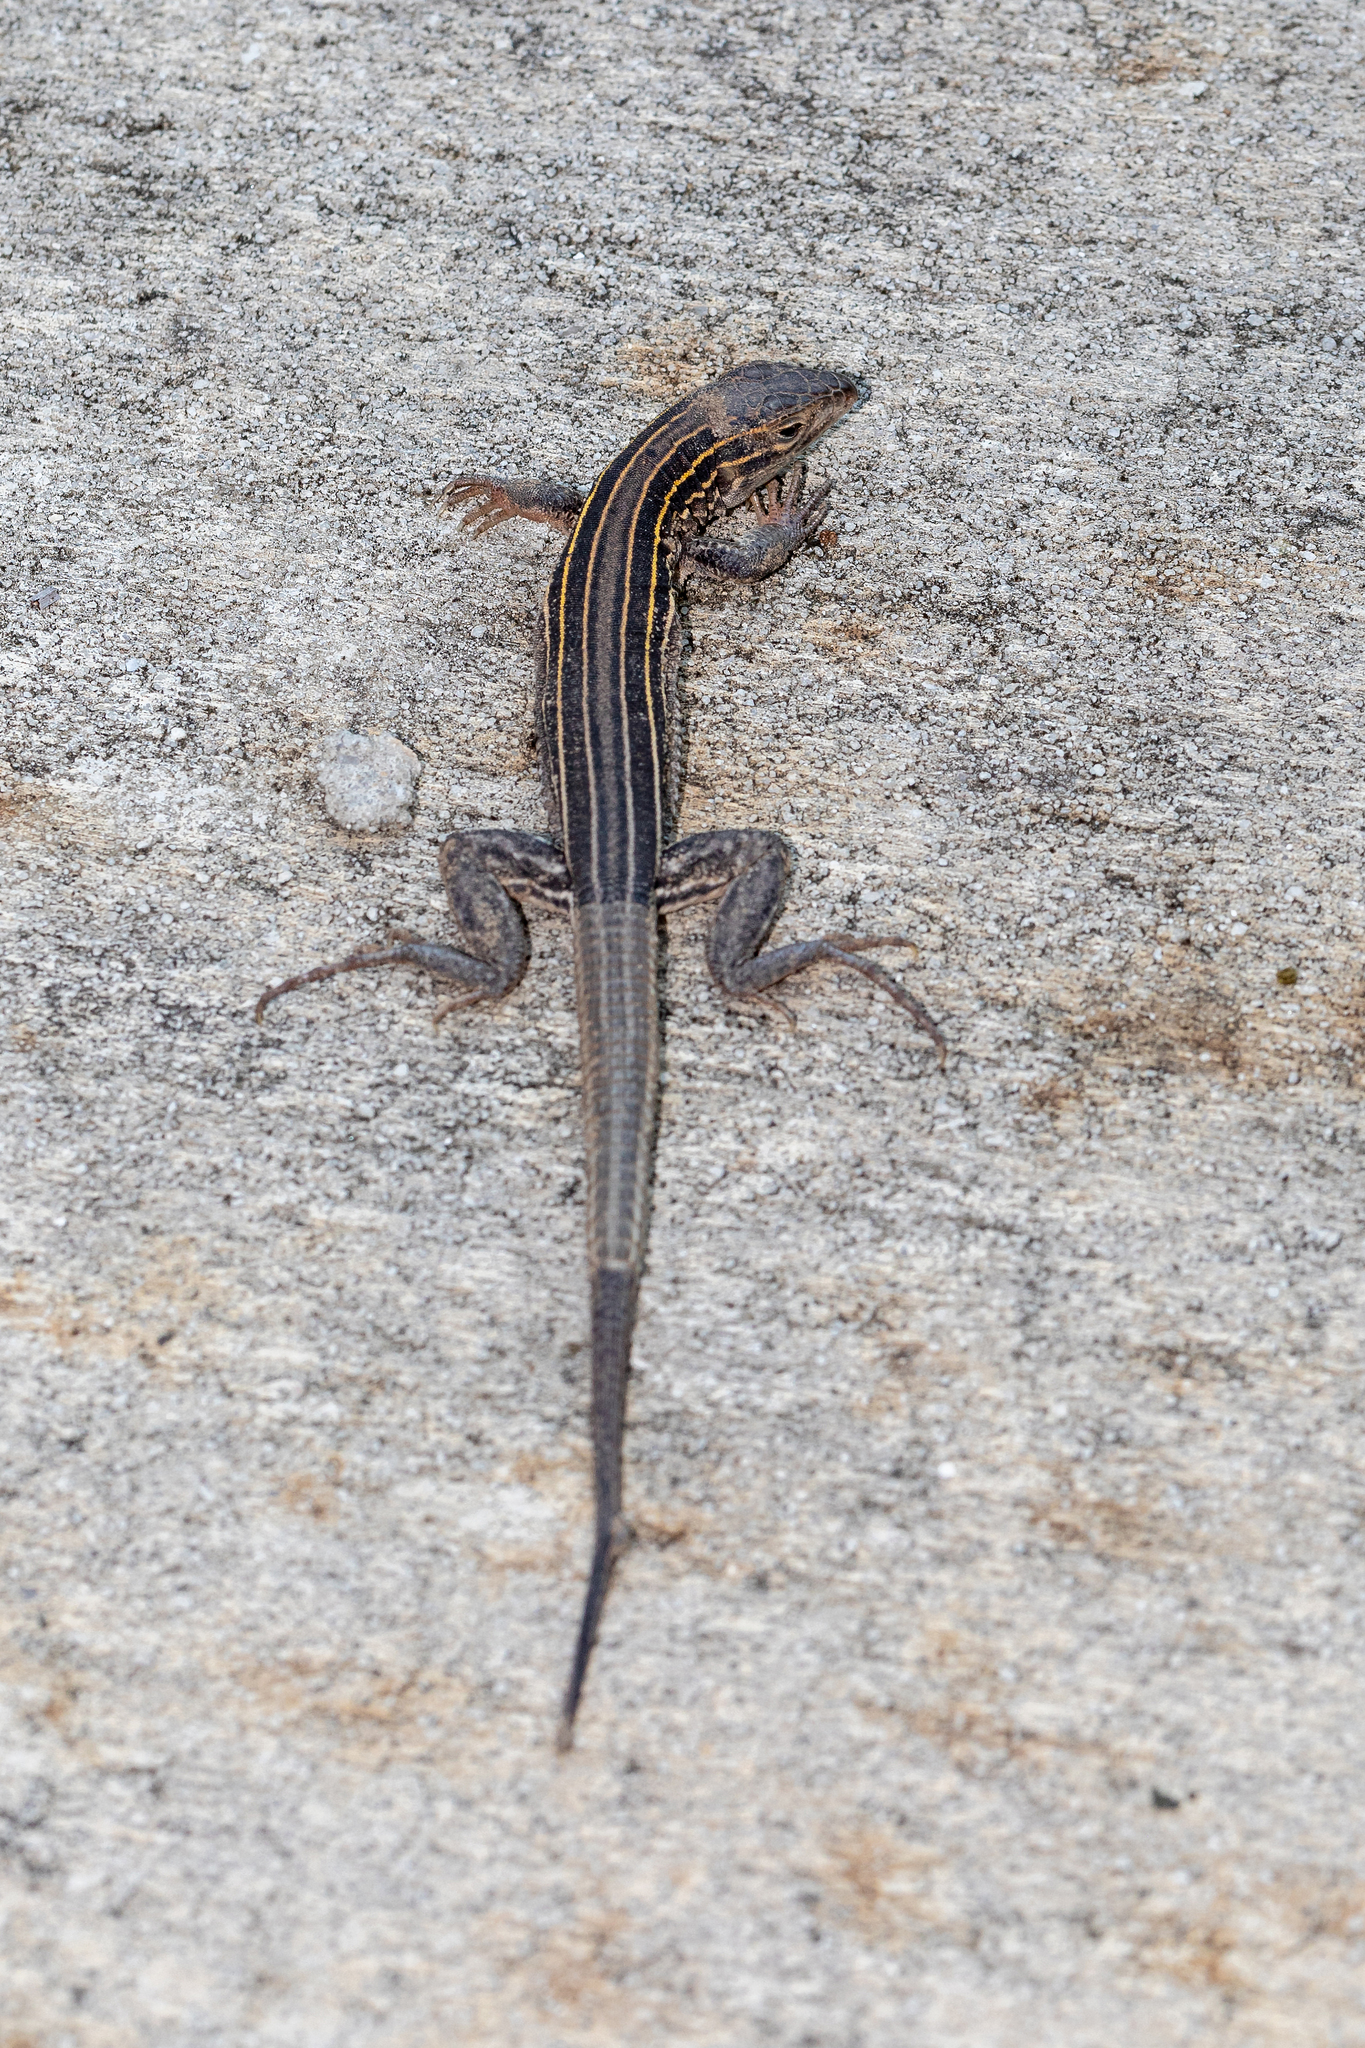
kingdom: Animalia
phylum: Chordata
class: Squamata
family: Teiidae
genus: Aspidoscelis
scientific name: Aspidoscelis sexlineatus
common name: Six-lined racerunner
